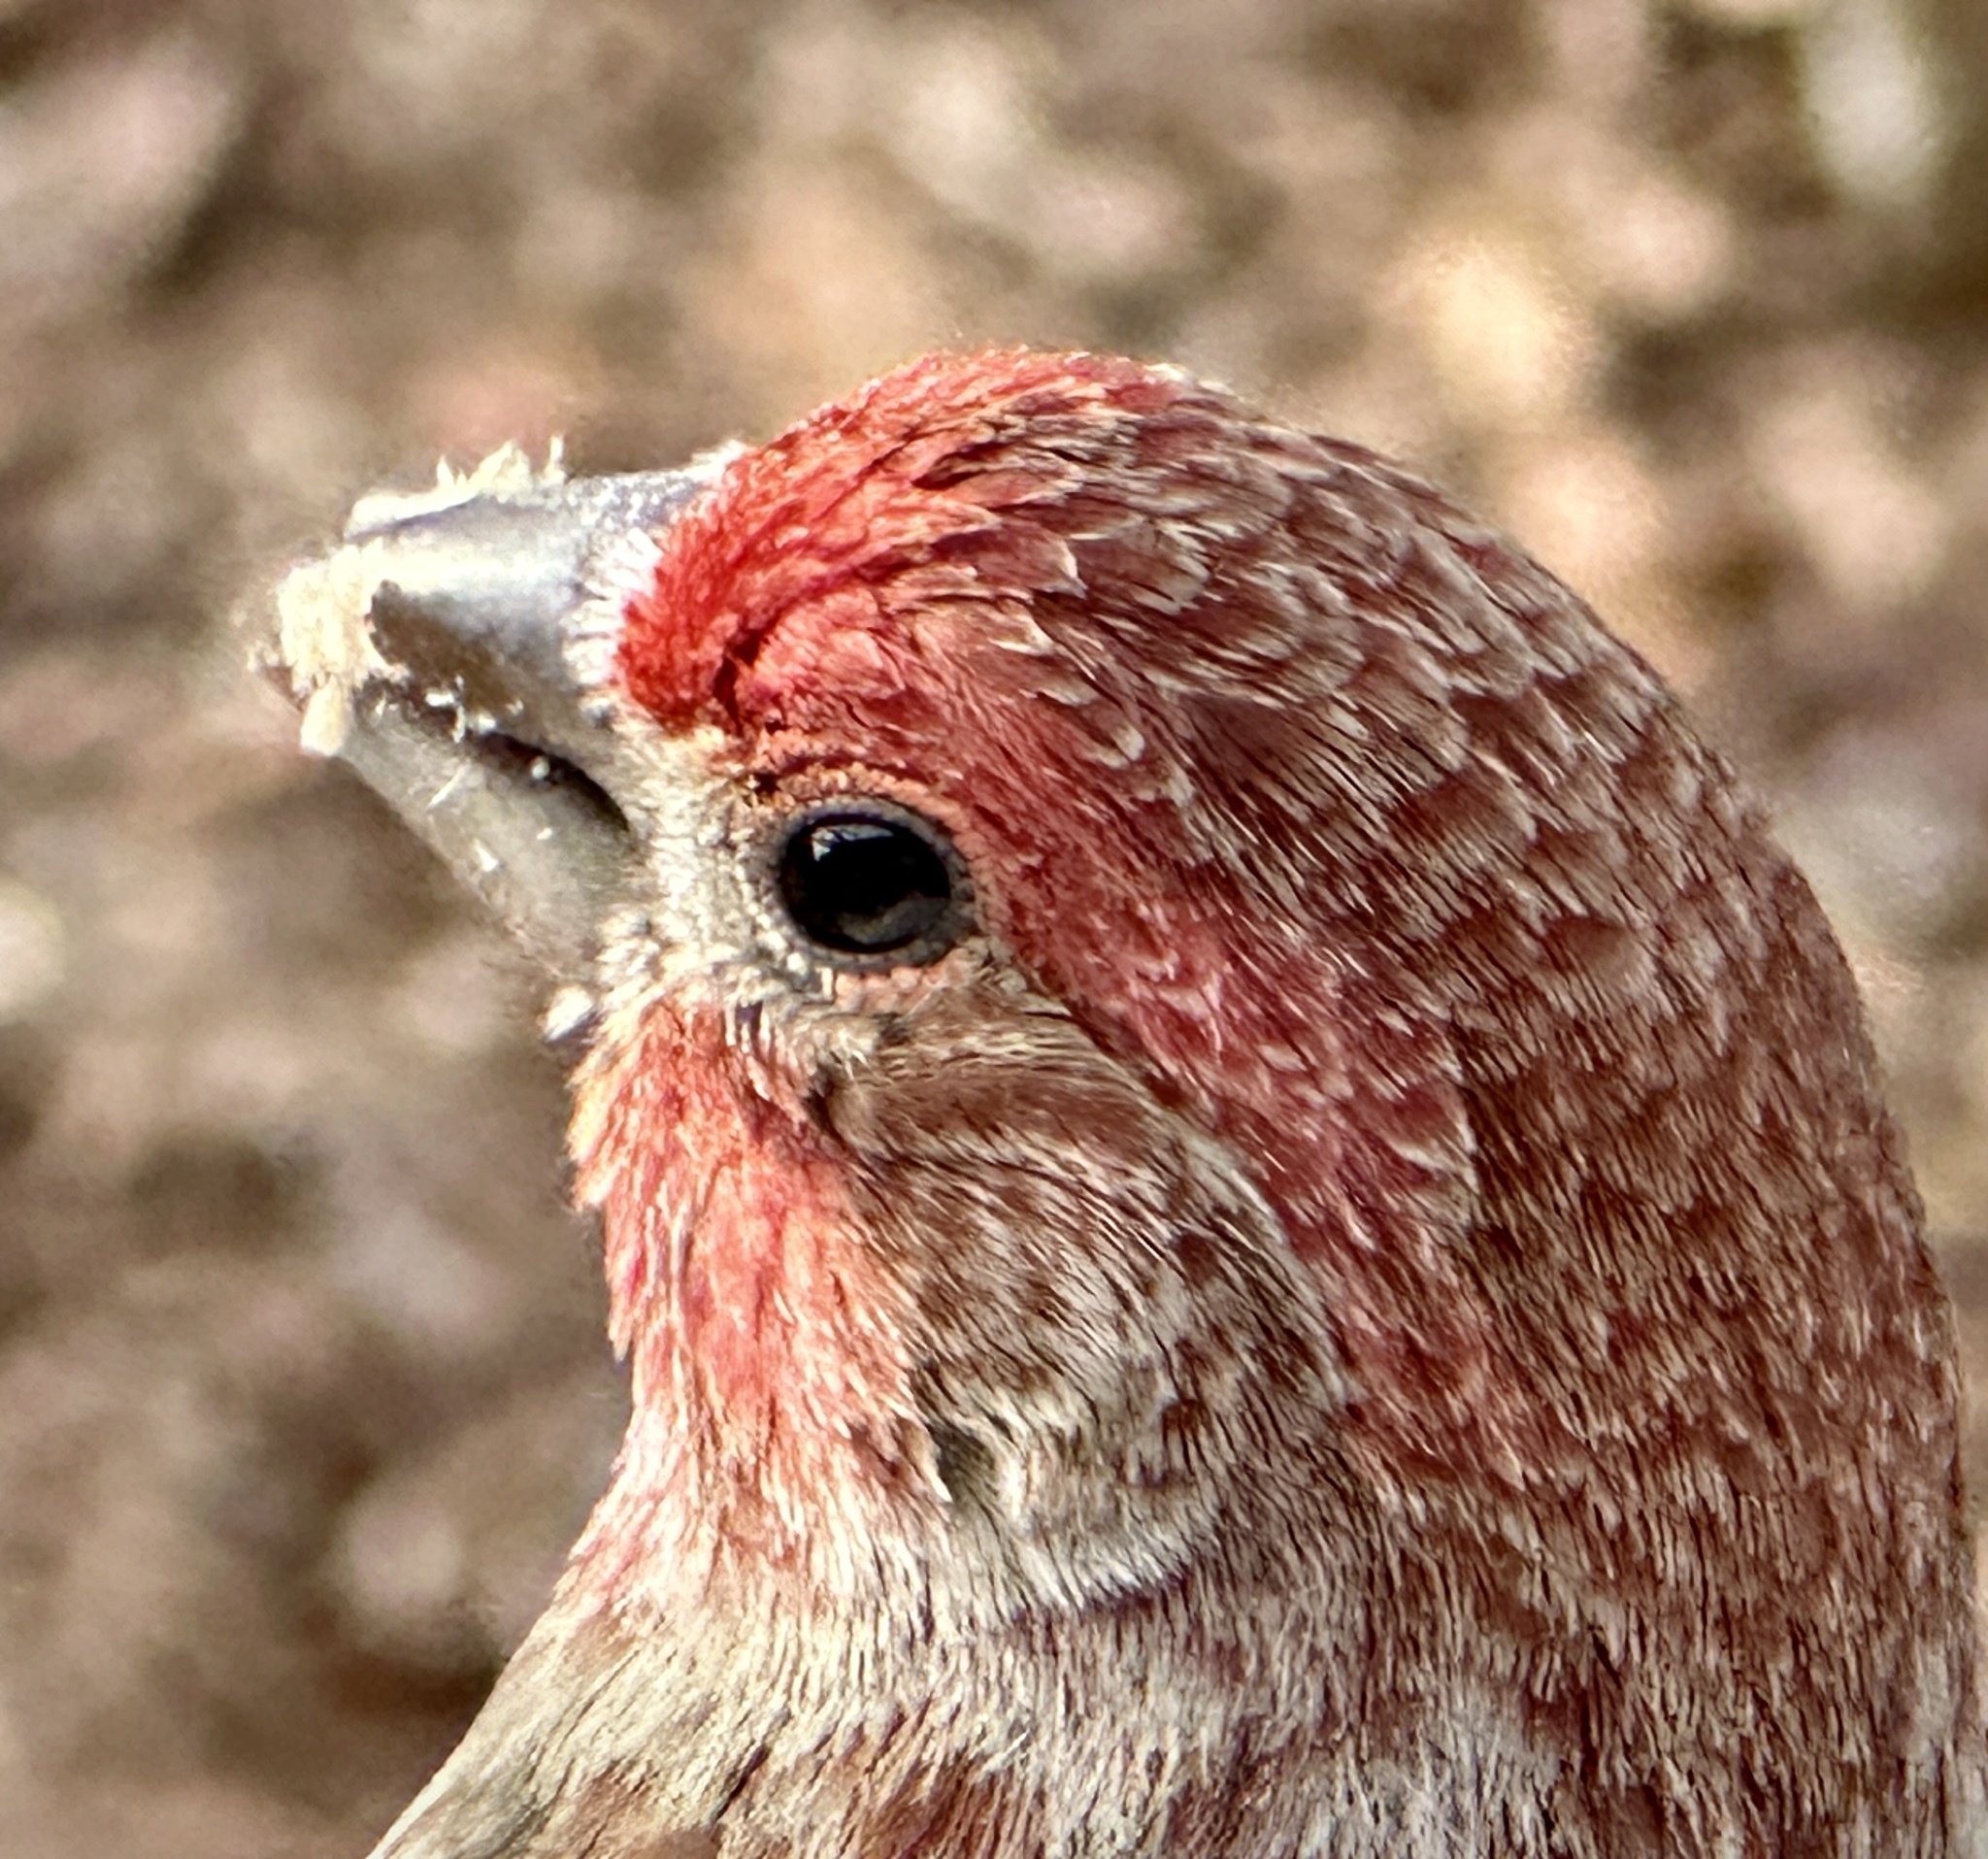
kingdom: Animalia
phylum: Chordata
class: Aves
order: Passeriformes
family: Fringillidae
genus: Haemorhous
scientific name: Haemorhous mexicanus
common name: House finch
